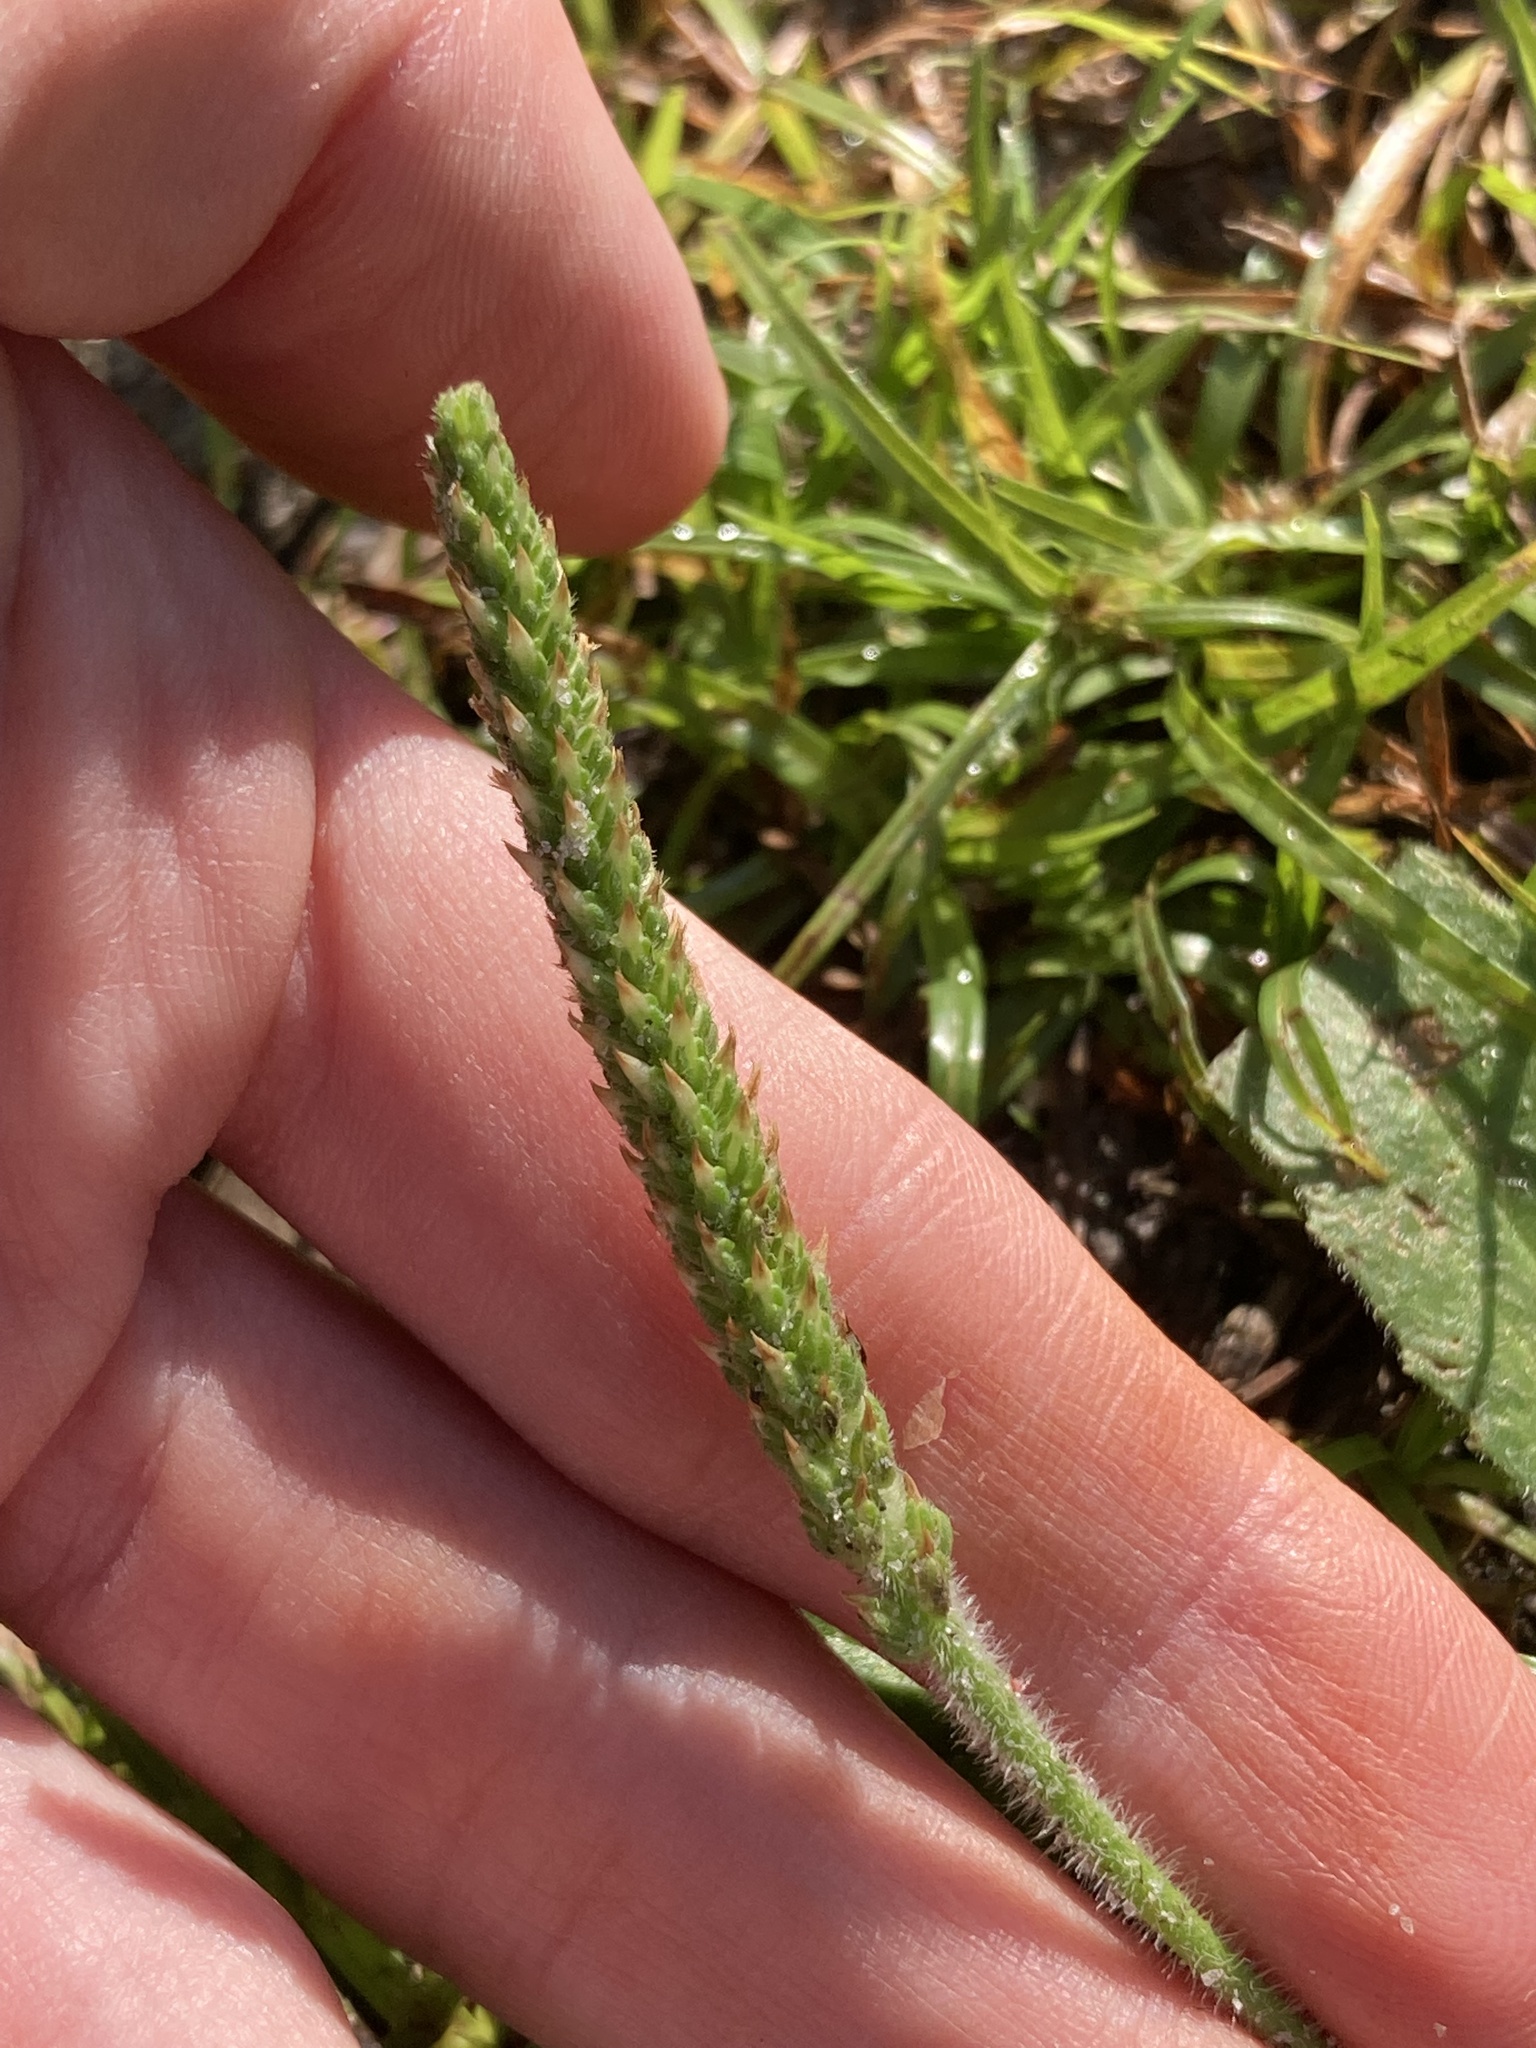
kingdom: Plantae
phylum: Tracheophyta
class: Magnoliopsida
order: Lamiales
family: Plantaginaceae
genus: Plantago
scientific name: Plantago virginica
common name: Hoary plantain
